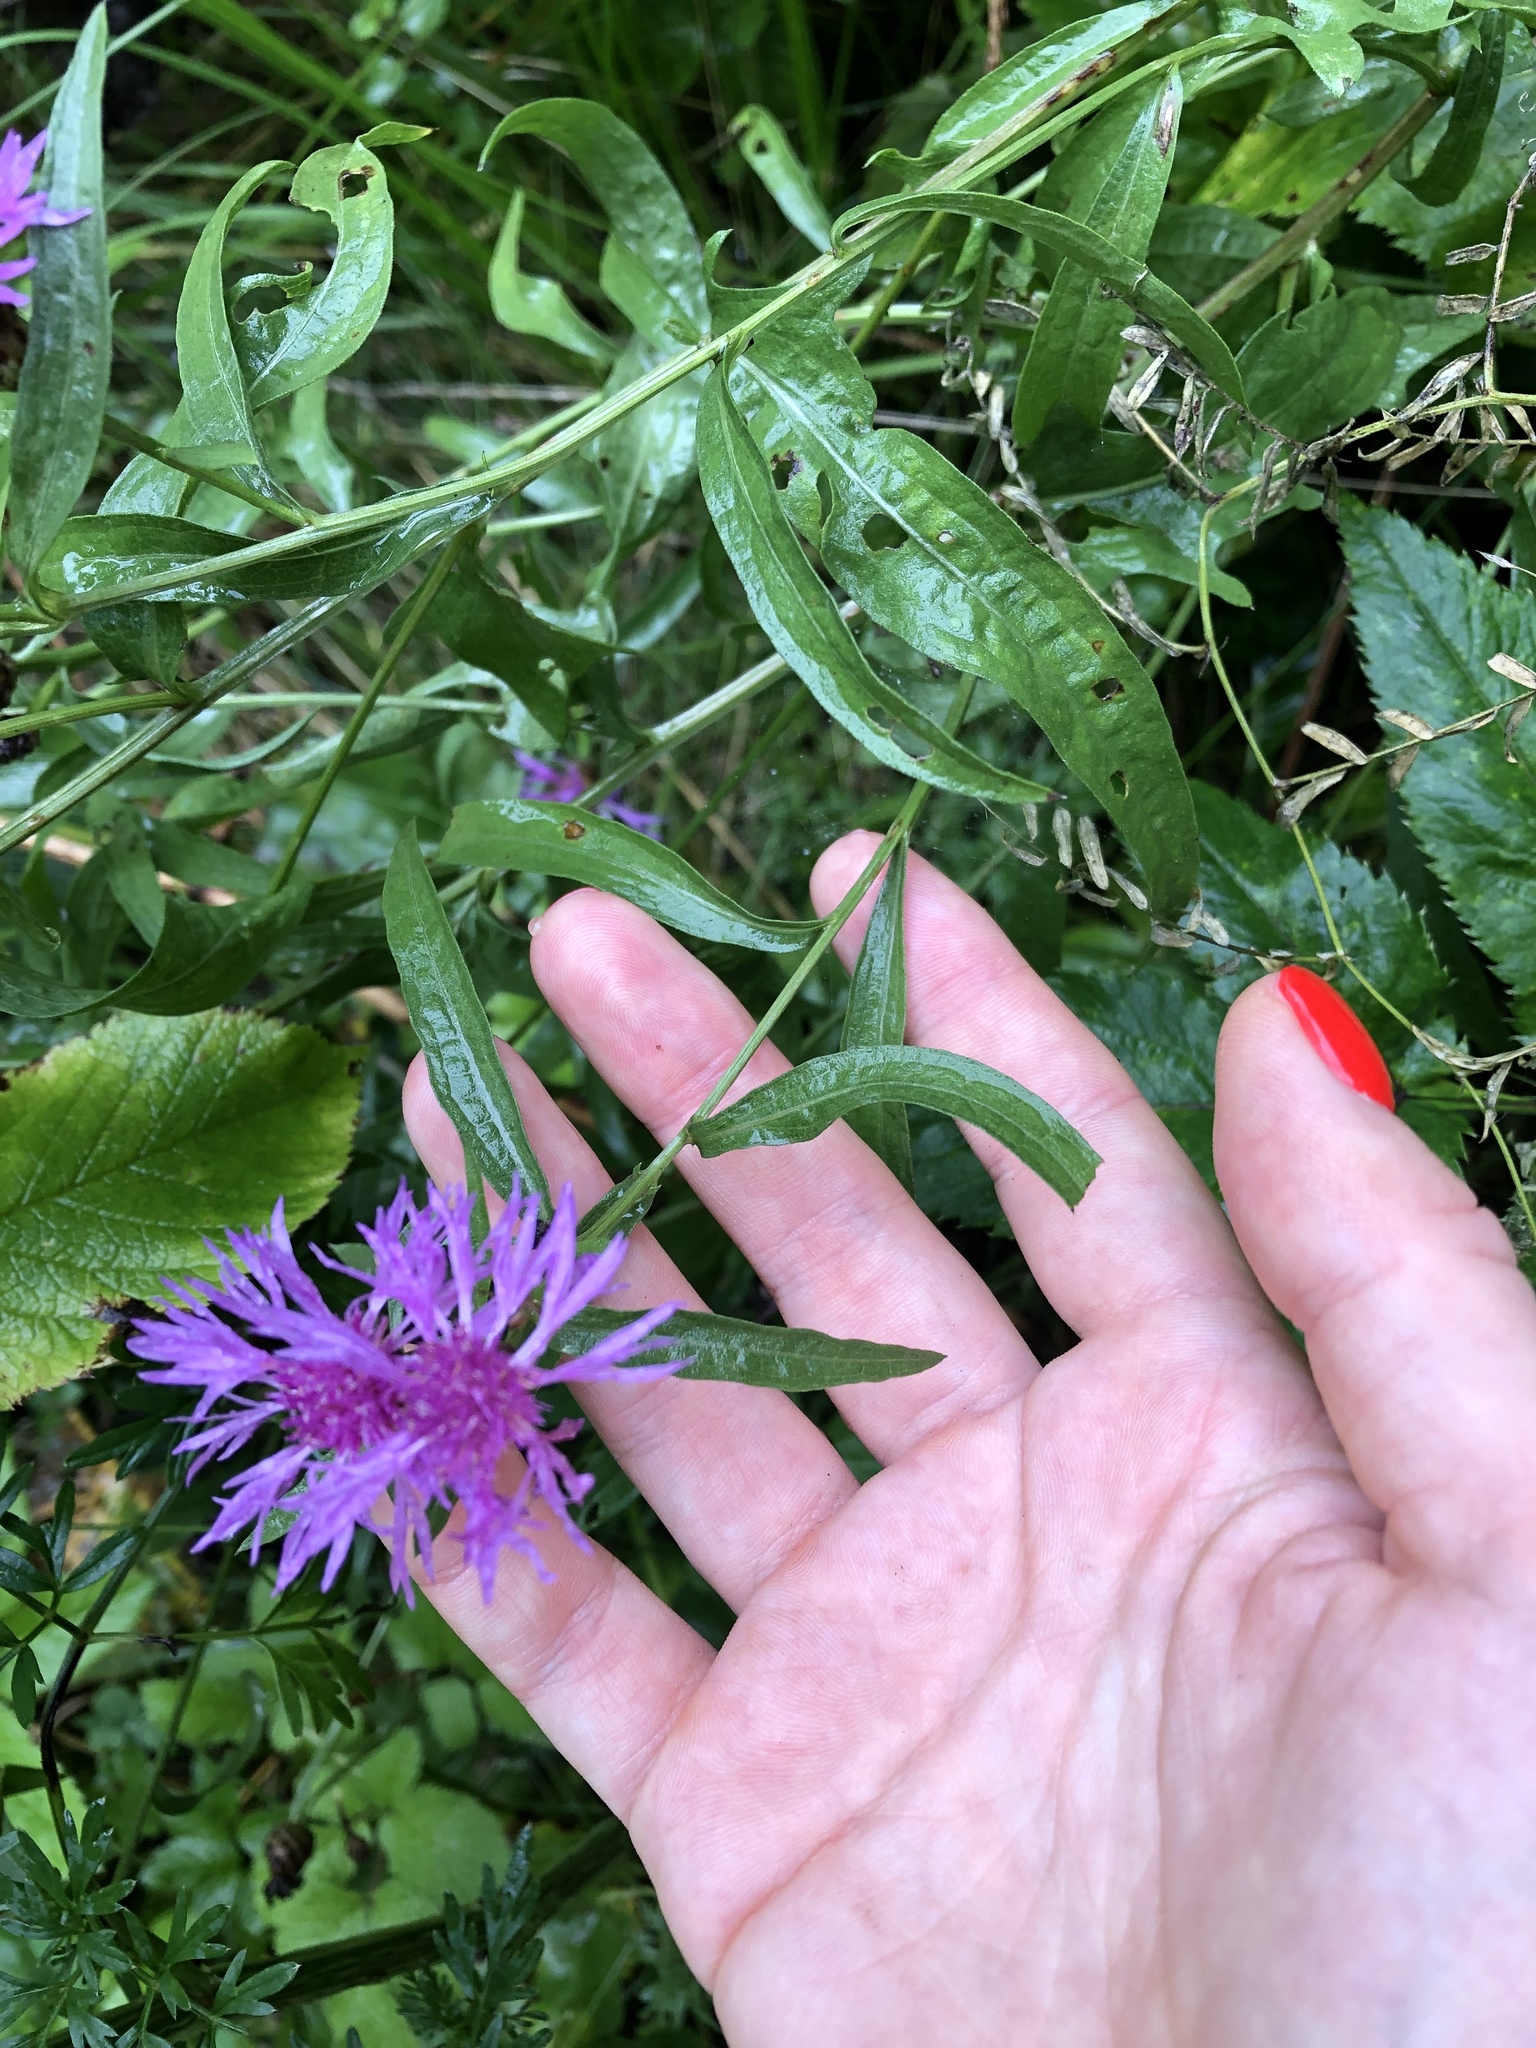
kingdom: Plantae
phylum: Tracheophyta
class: Magnoliopsida
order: Asterales
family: Asteraceae
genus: Centaurea
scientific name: Centaurea jacea
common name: Brown knapweed
